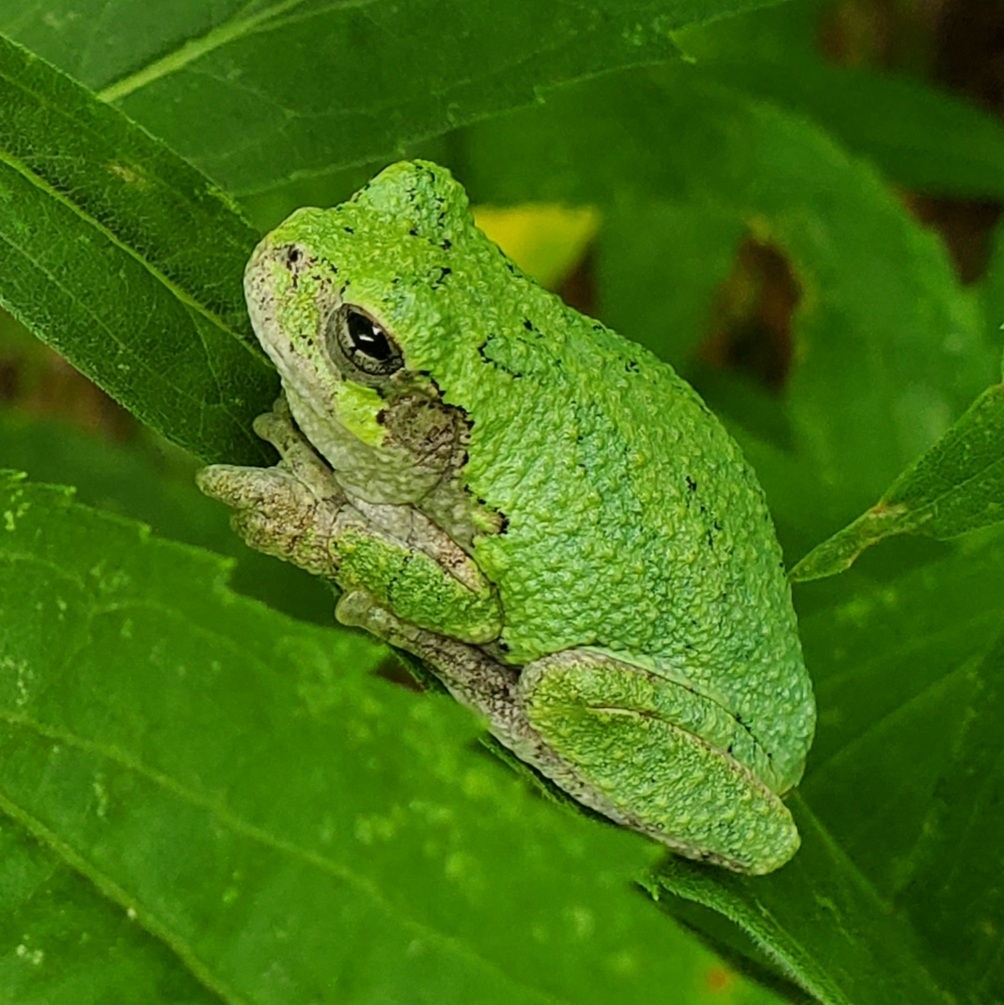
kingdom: Animalia
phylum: Chordata
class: Amphibia
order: Anura
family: Hylidae
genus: Dryophytes
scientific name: Dryophytes chrysoscelis
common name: Cope's gray treefrog
